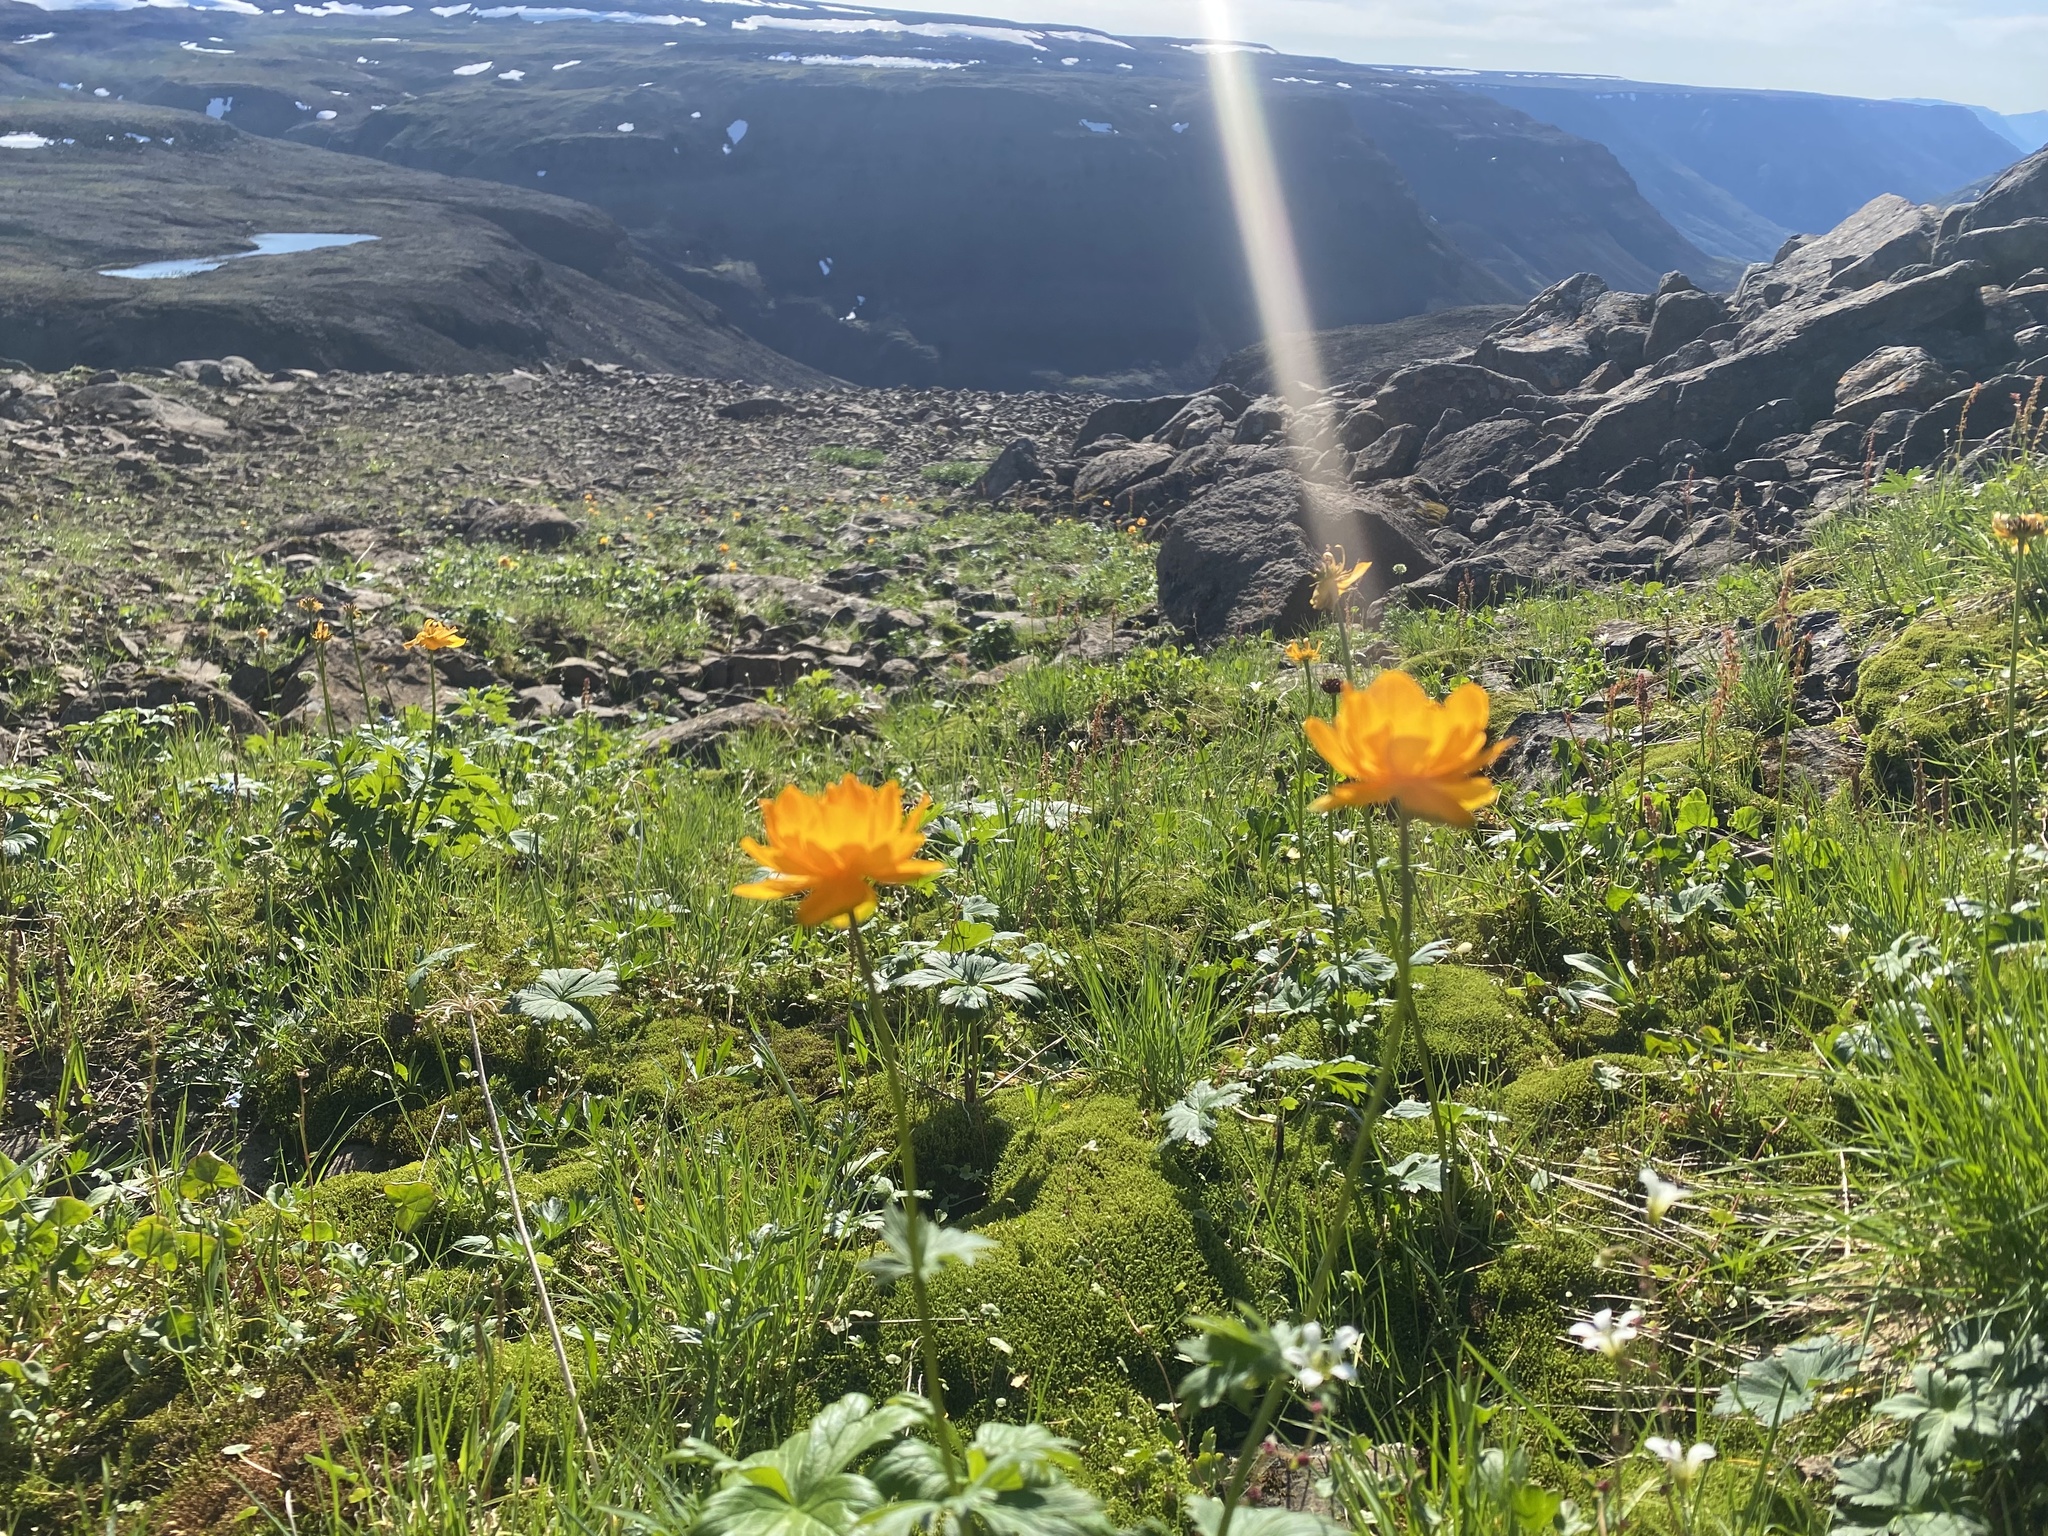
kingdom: Plantae
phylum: Tracheophyta
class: Magnoliopsida
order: Ranunculales
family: Ranunculaceae
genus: Trollius
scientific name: Trollius asiaticus
